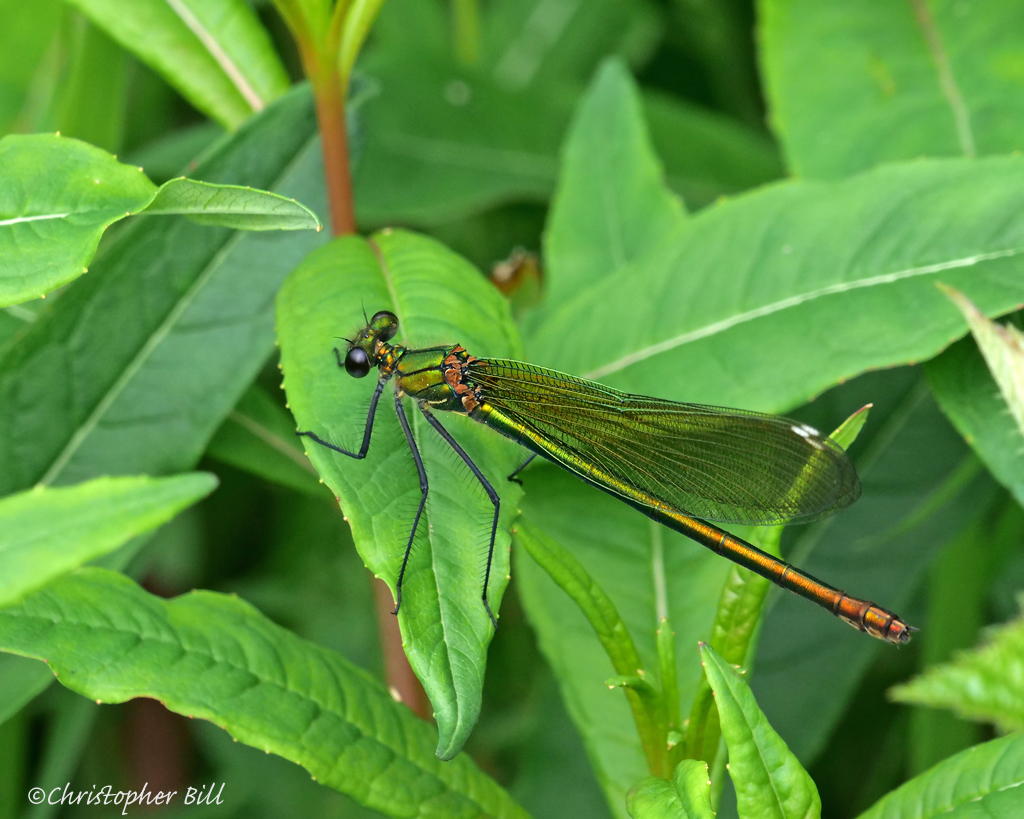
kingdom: Animalia
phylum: Arthropoda
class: Insecta
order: Odonata
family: Calopterygidae
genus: Calopteryx
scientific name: Calopteryx splendens
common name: Banded demoiselle
